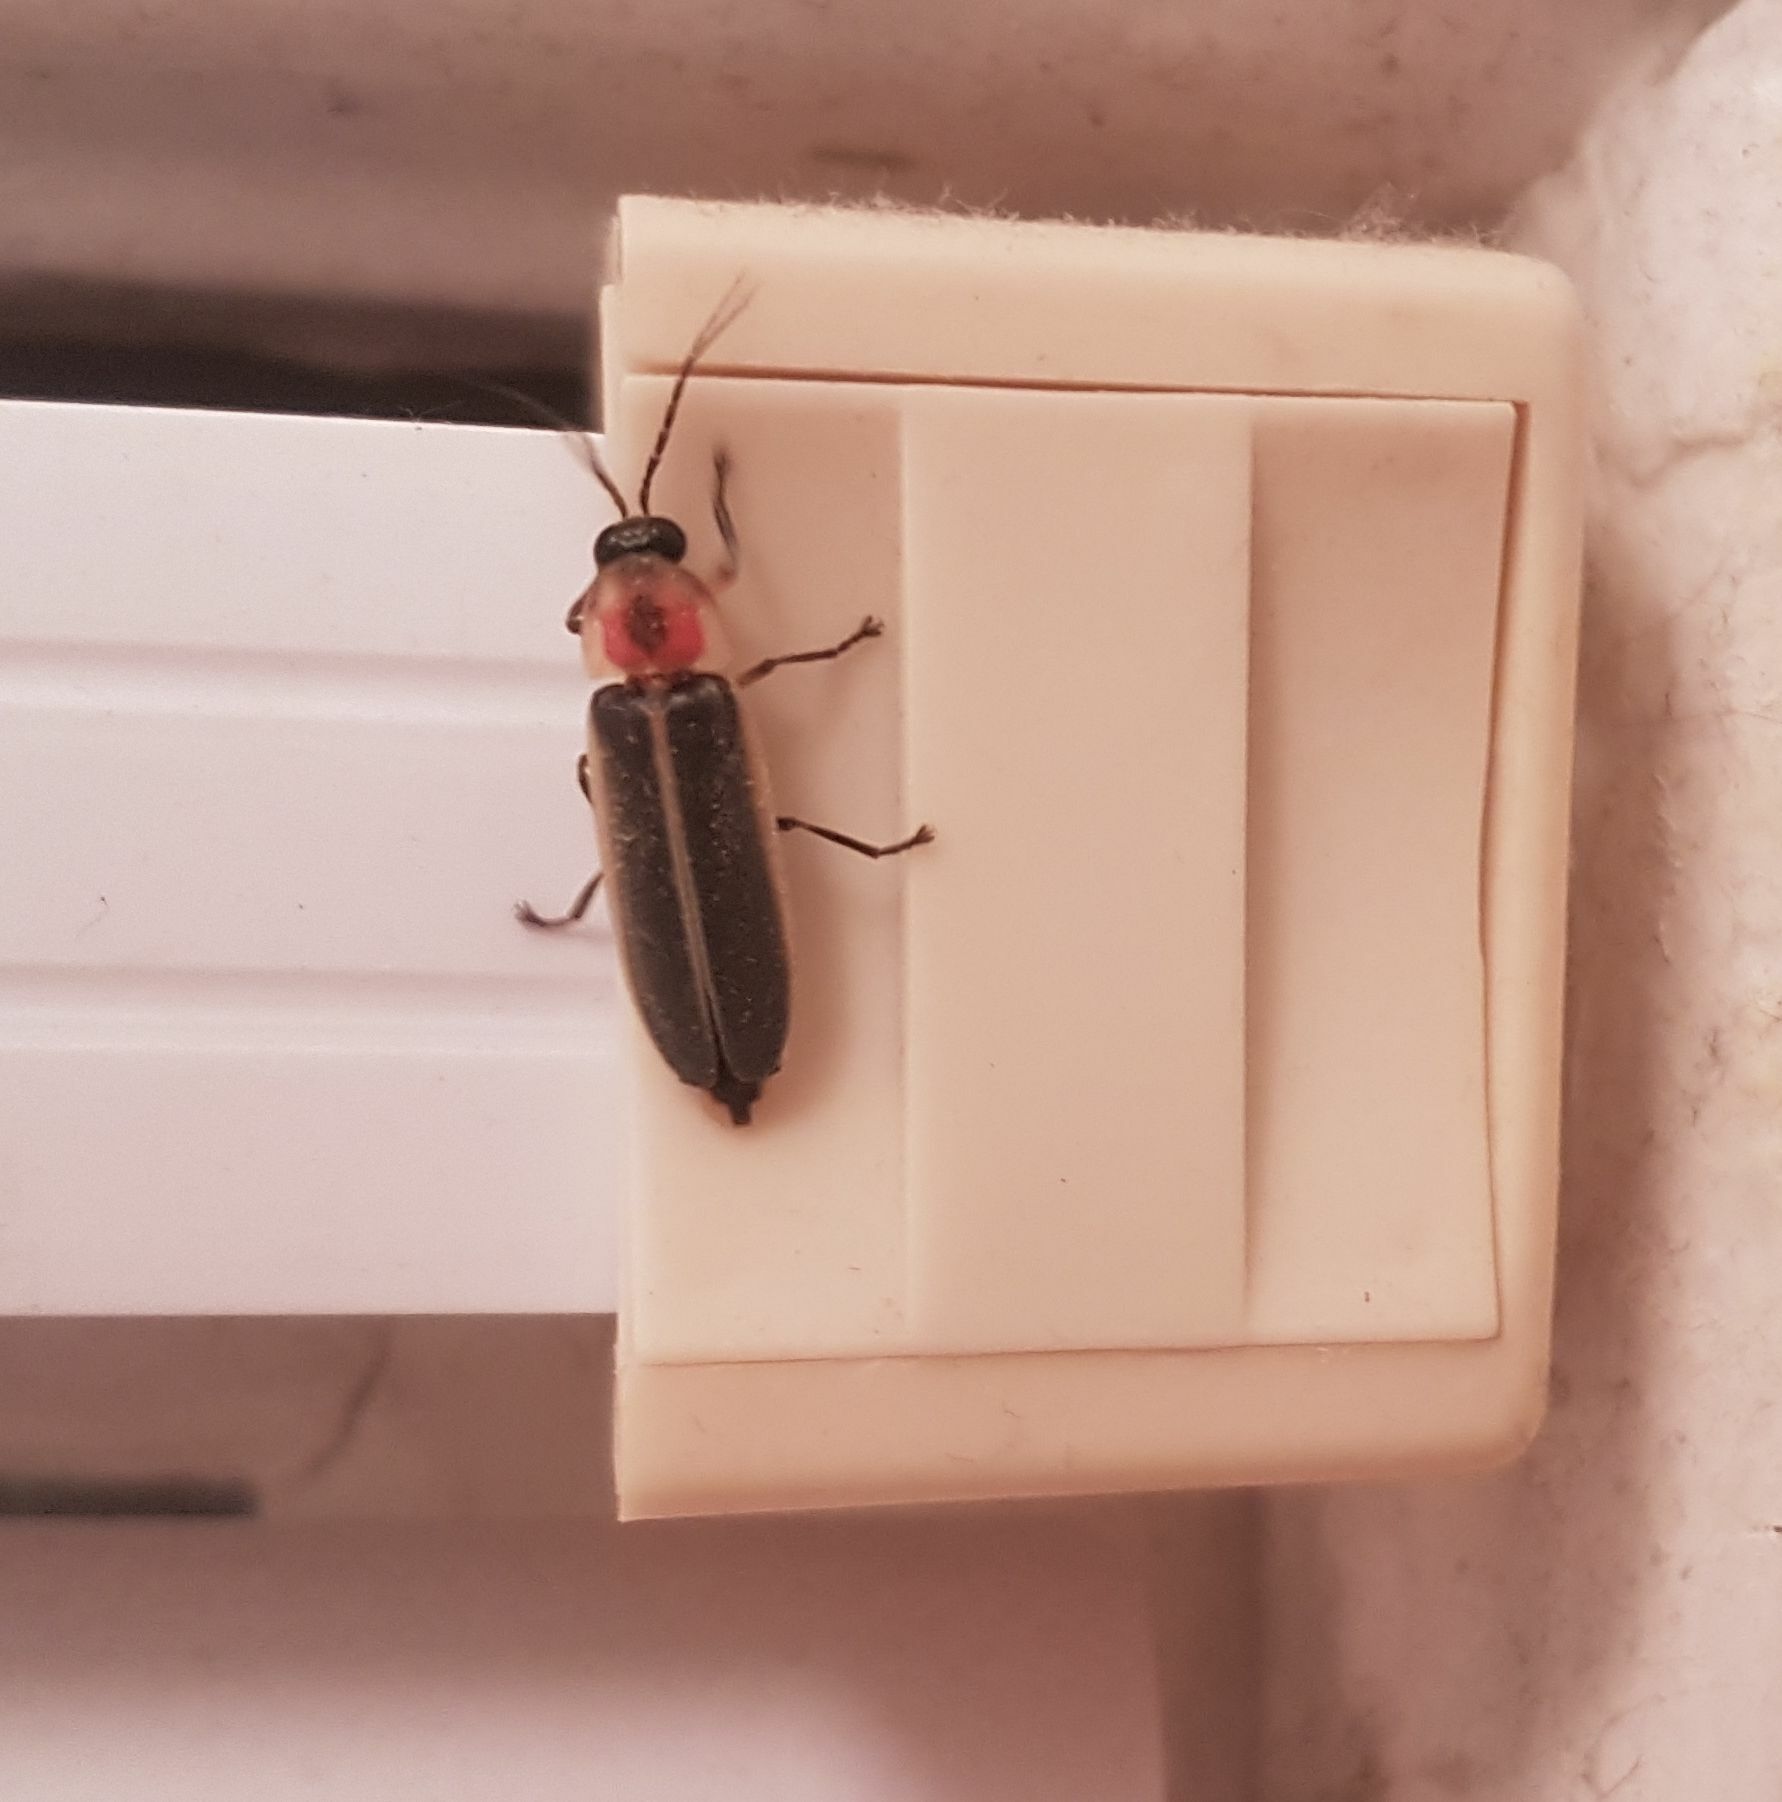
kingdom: Animalia
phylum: Arthropoda
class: Insecta
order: Coleoptera
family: Lampyridae
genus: Photinus
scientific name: Photinus pyralis
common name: Big dipper firefly
